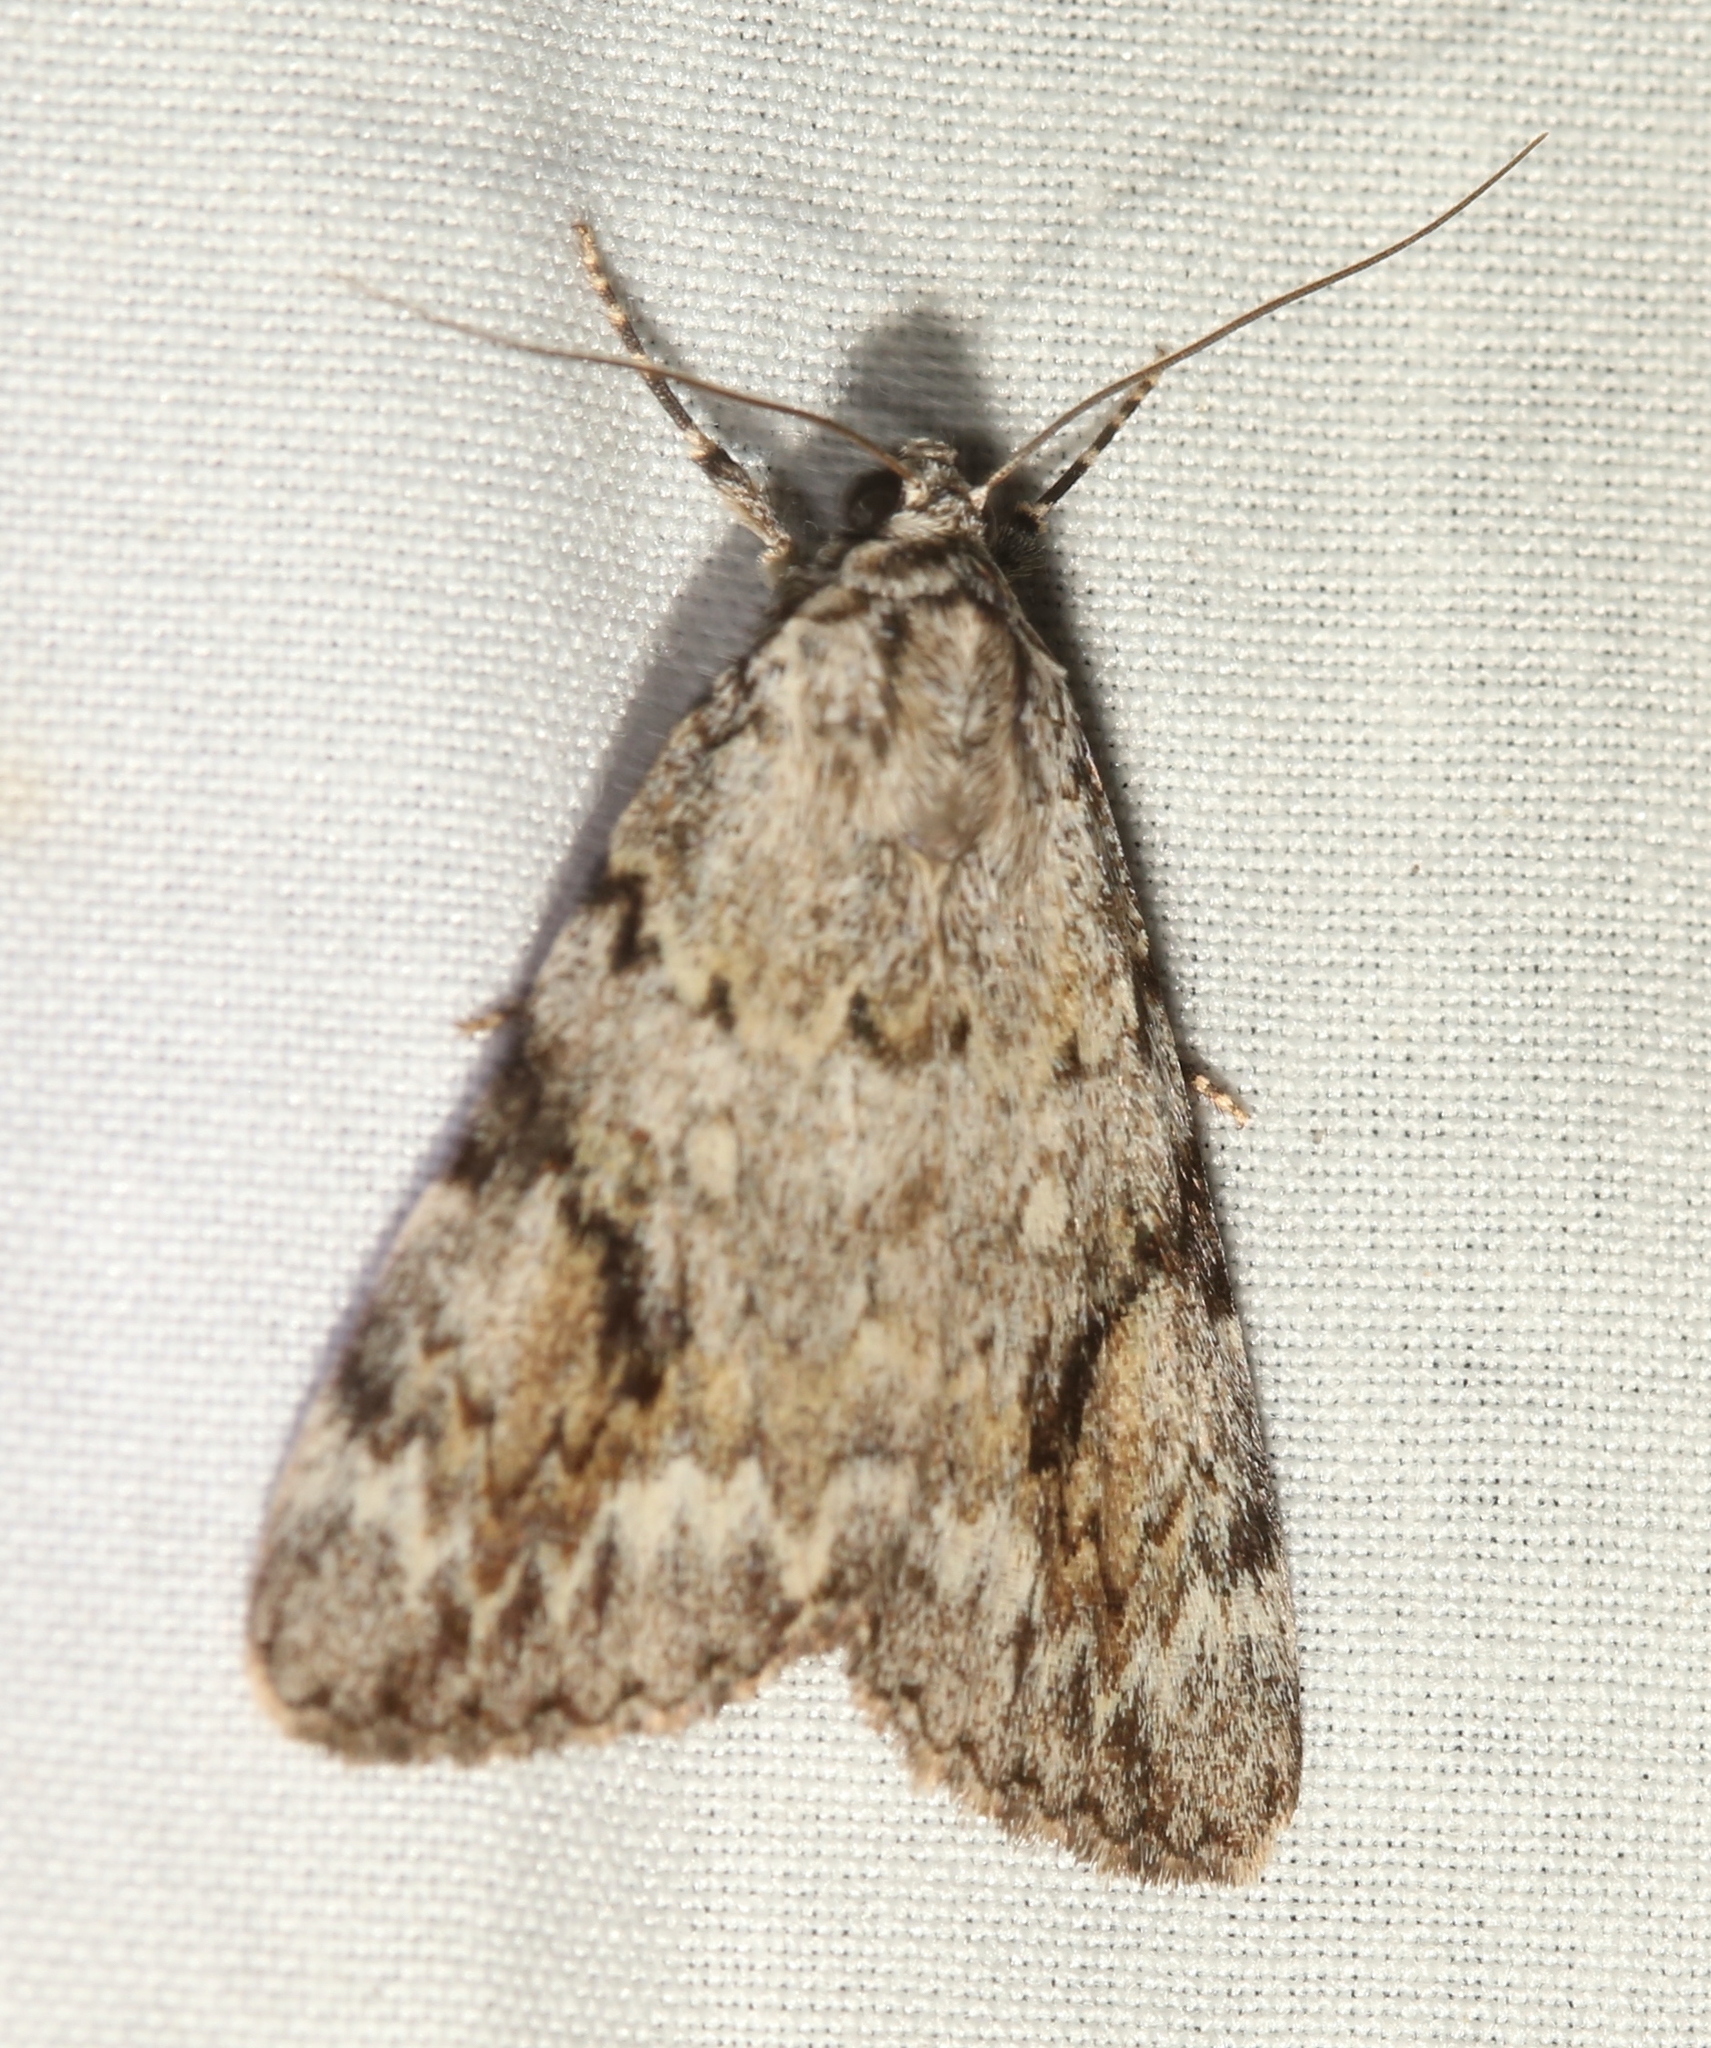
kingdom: Animalia
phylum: Arthropoda
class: Insecta
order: Lepidoptera
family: Erebidae
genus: Catocala
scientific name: Catocala amica
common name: Girlfriend underwing
